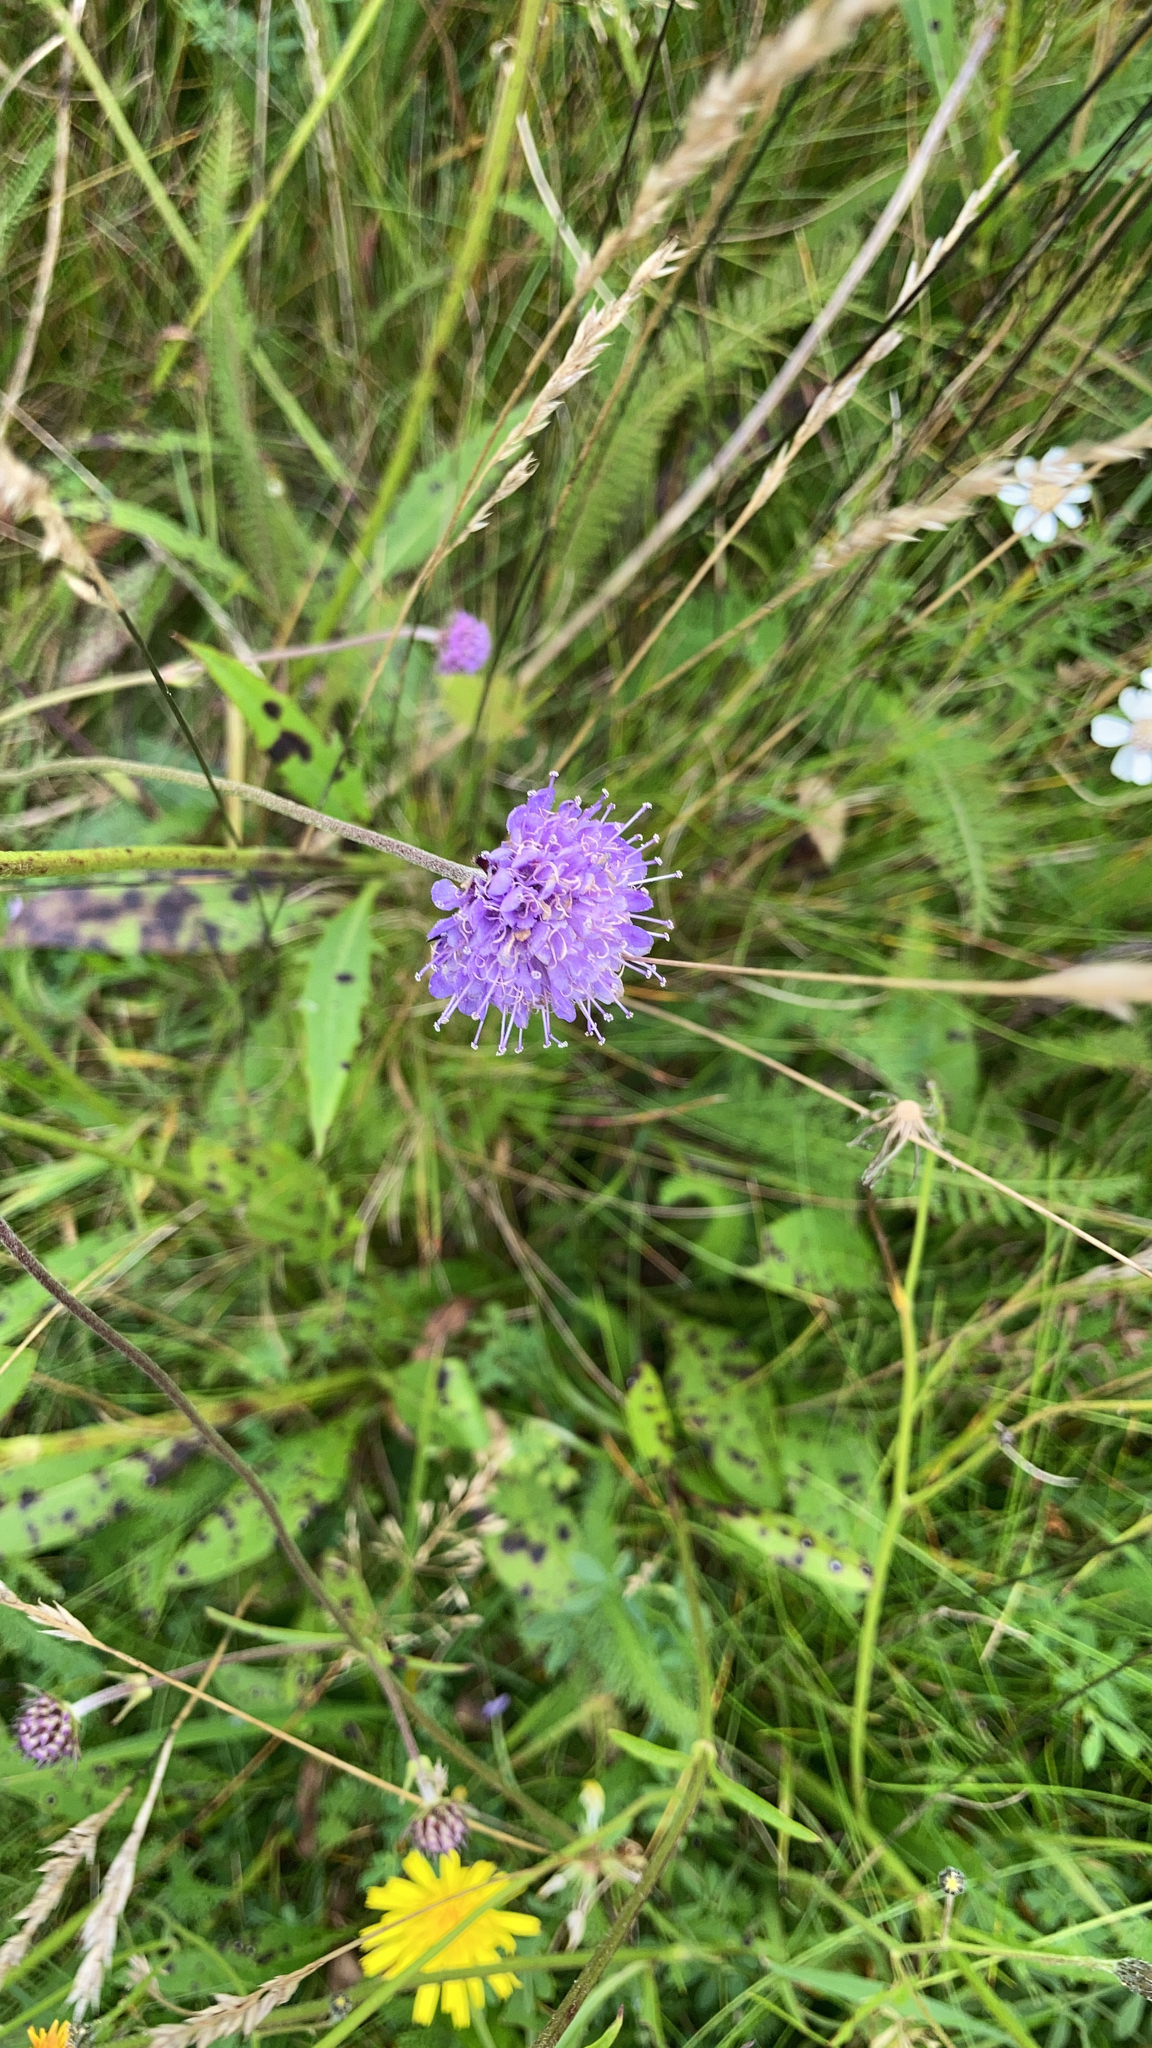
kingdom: Plantae
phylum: Tracheophyta
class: Magnoliopsida
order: Dipsacales
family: Caprifoliaceae
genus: Succisa
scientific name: Succisa pratensis
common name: Devil's-bit
